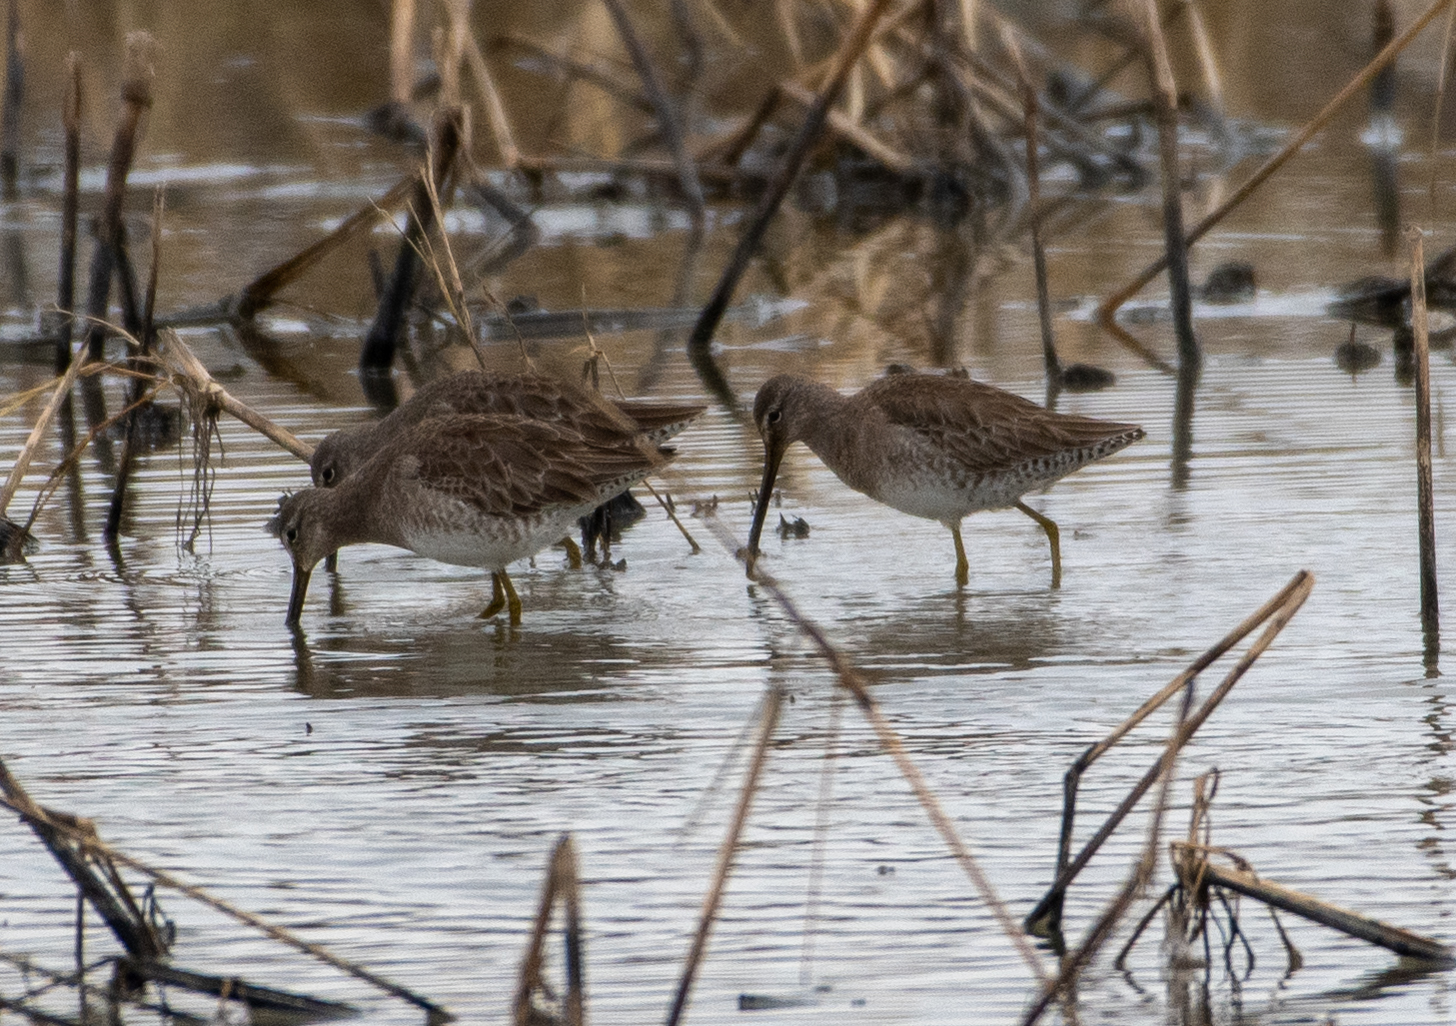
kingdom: Animalia
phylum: Chordata
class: Aves
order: Charadriiformes
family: Scolopacidae
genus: Limnodromus
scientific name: Limnodromus scolopaceus
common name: Long-billed dowitcher
